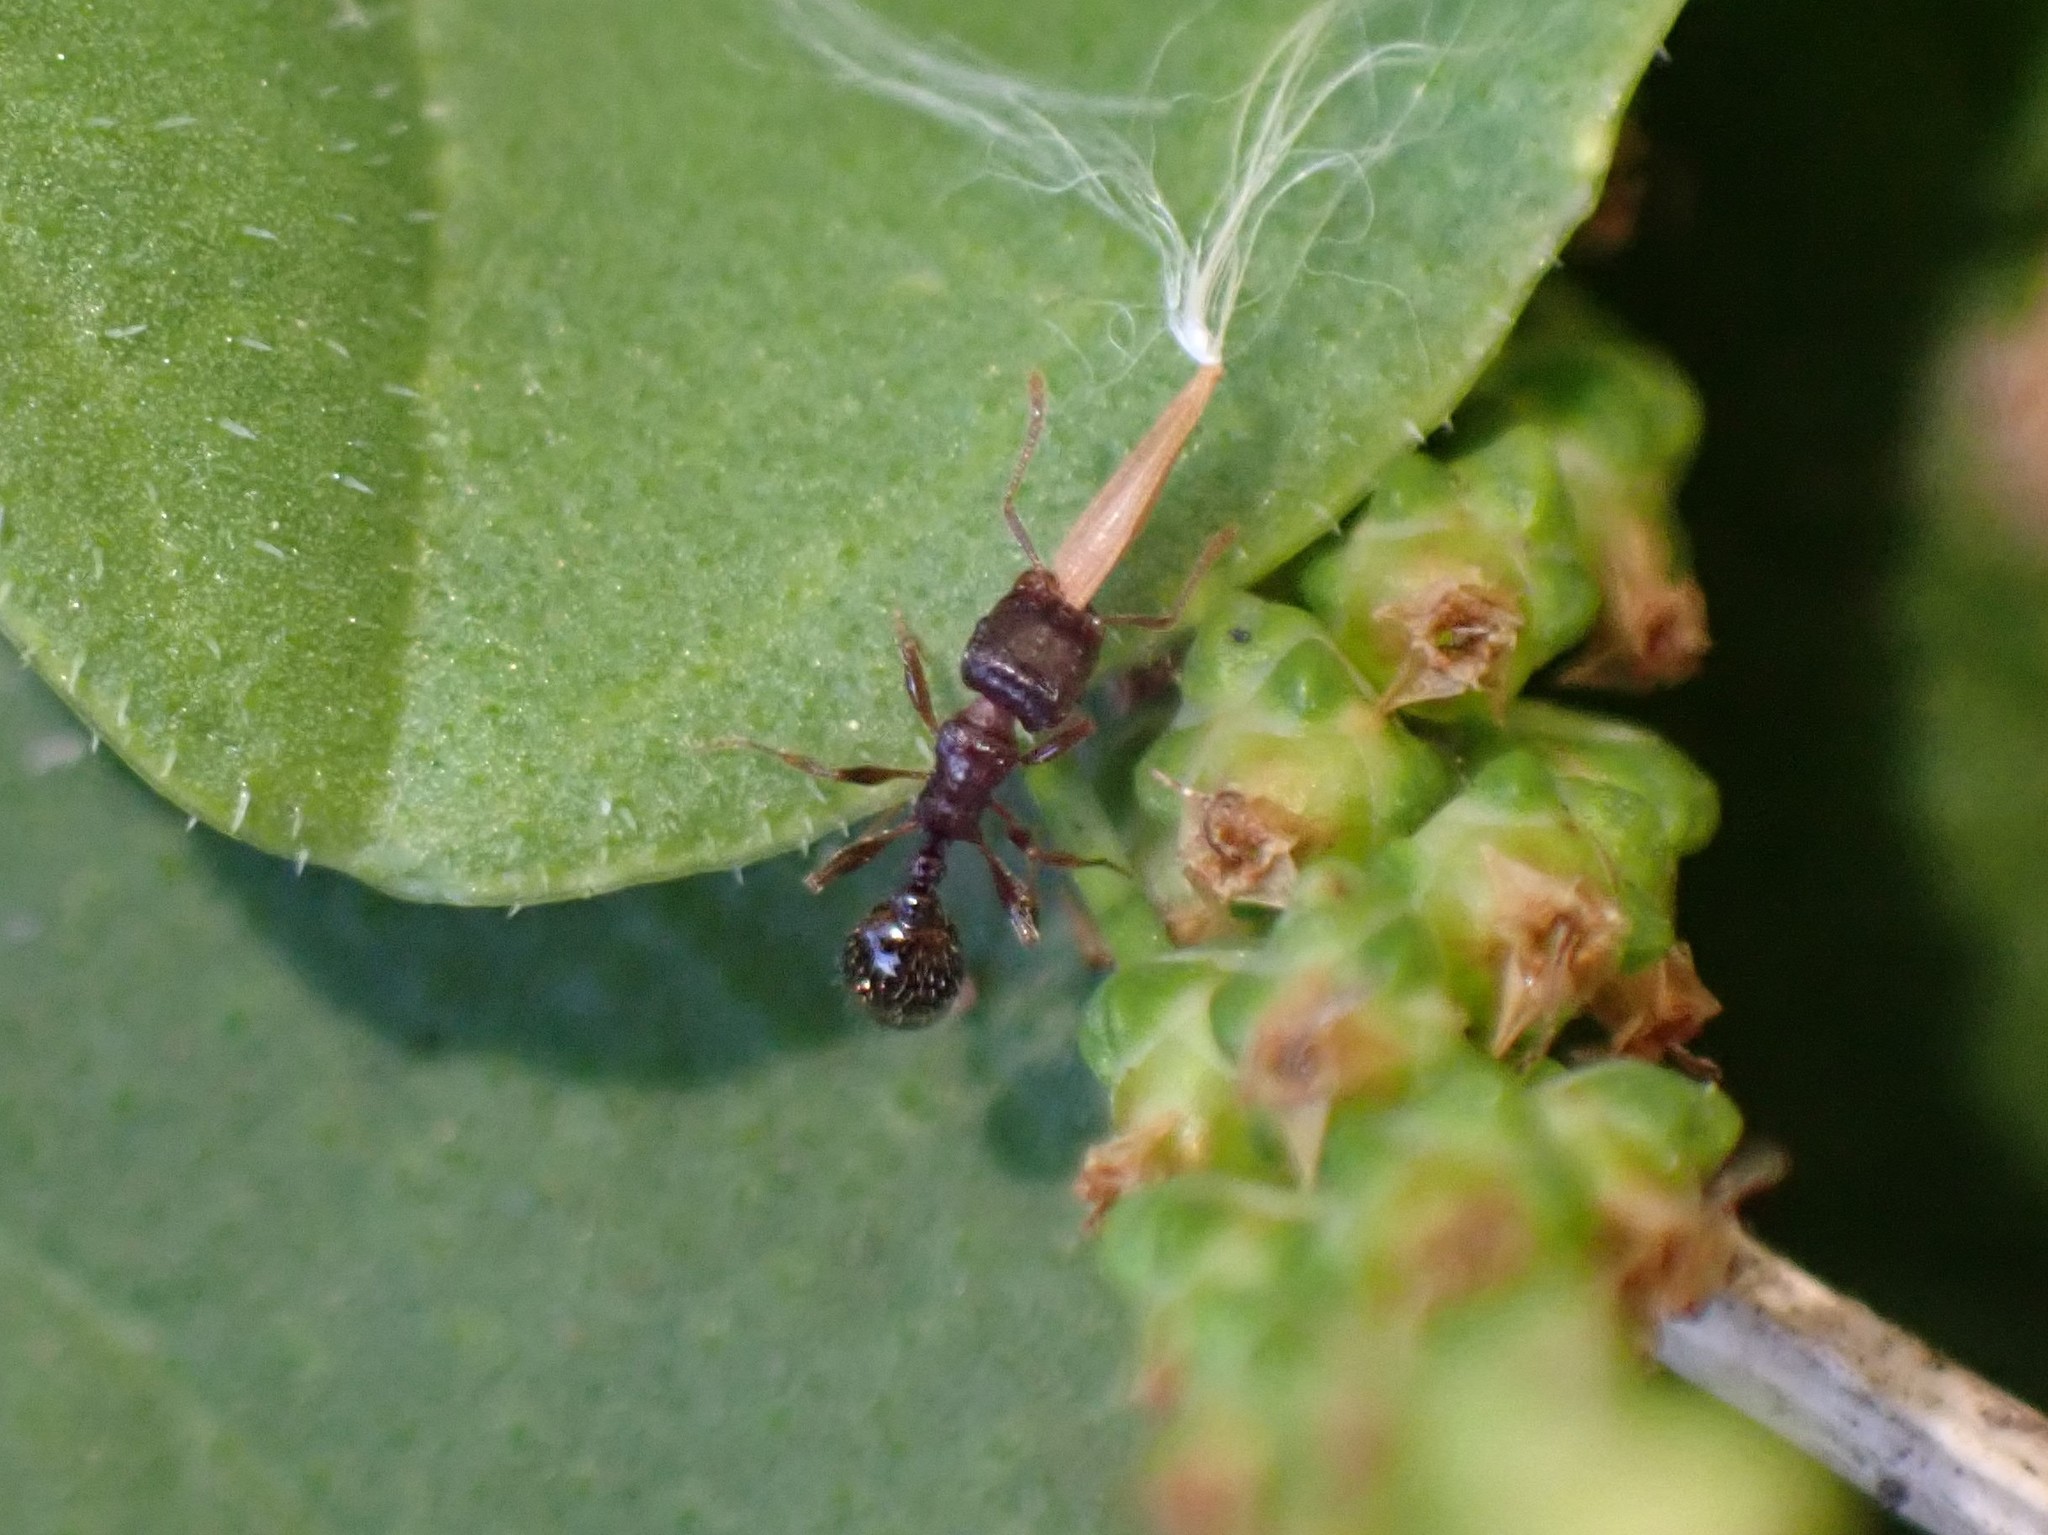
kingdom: Animalia
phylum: Arthropoda
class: Insecta
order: Hymenoptera
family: Formicidae
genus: Tetramorium
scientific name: Tetramorium immigrans
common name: Pavement ant
